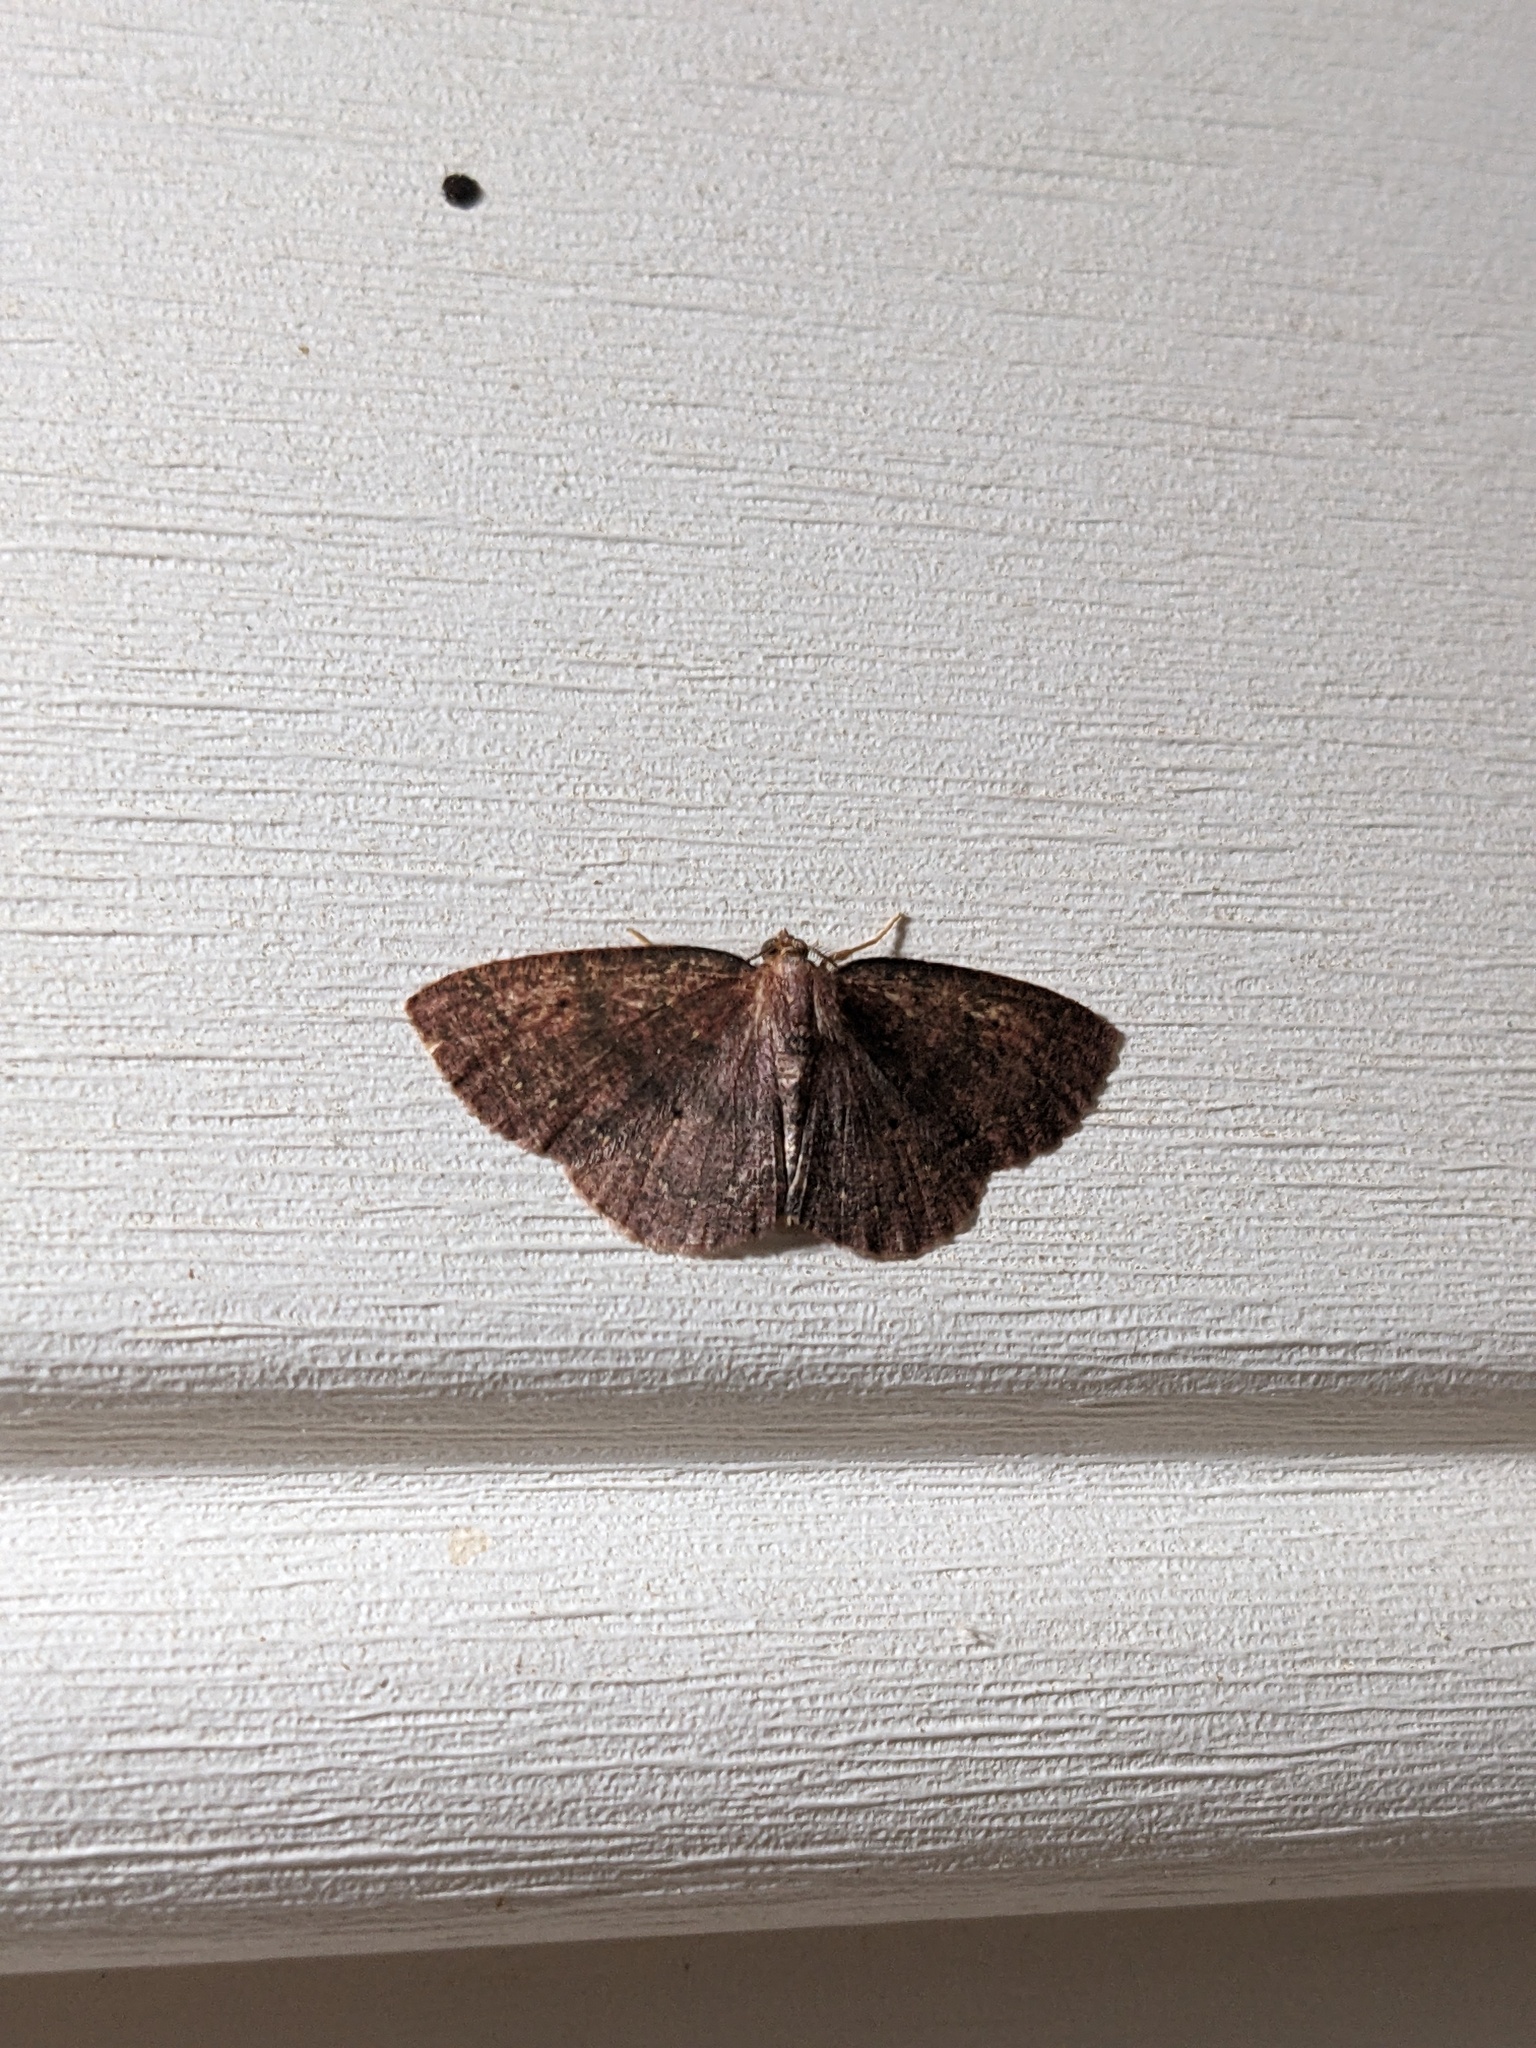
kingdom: Animalia
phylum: Arthropoda
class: Insecta
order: Lepidoptera
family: Geometridae
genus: Ilexia
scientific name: Ilexia intractata
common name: Black-dotted ruddy moth
